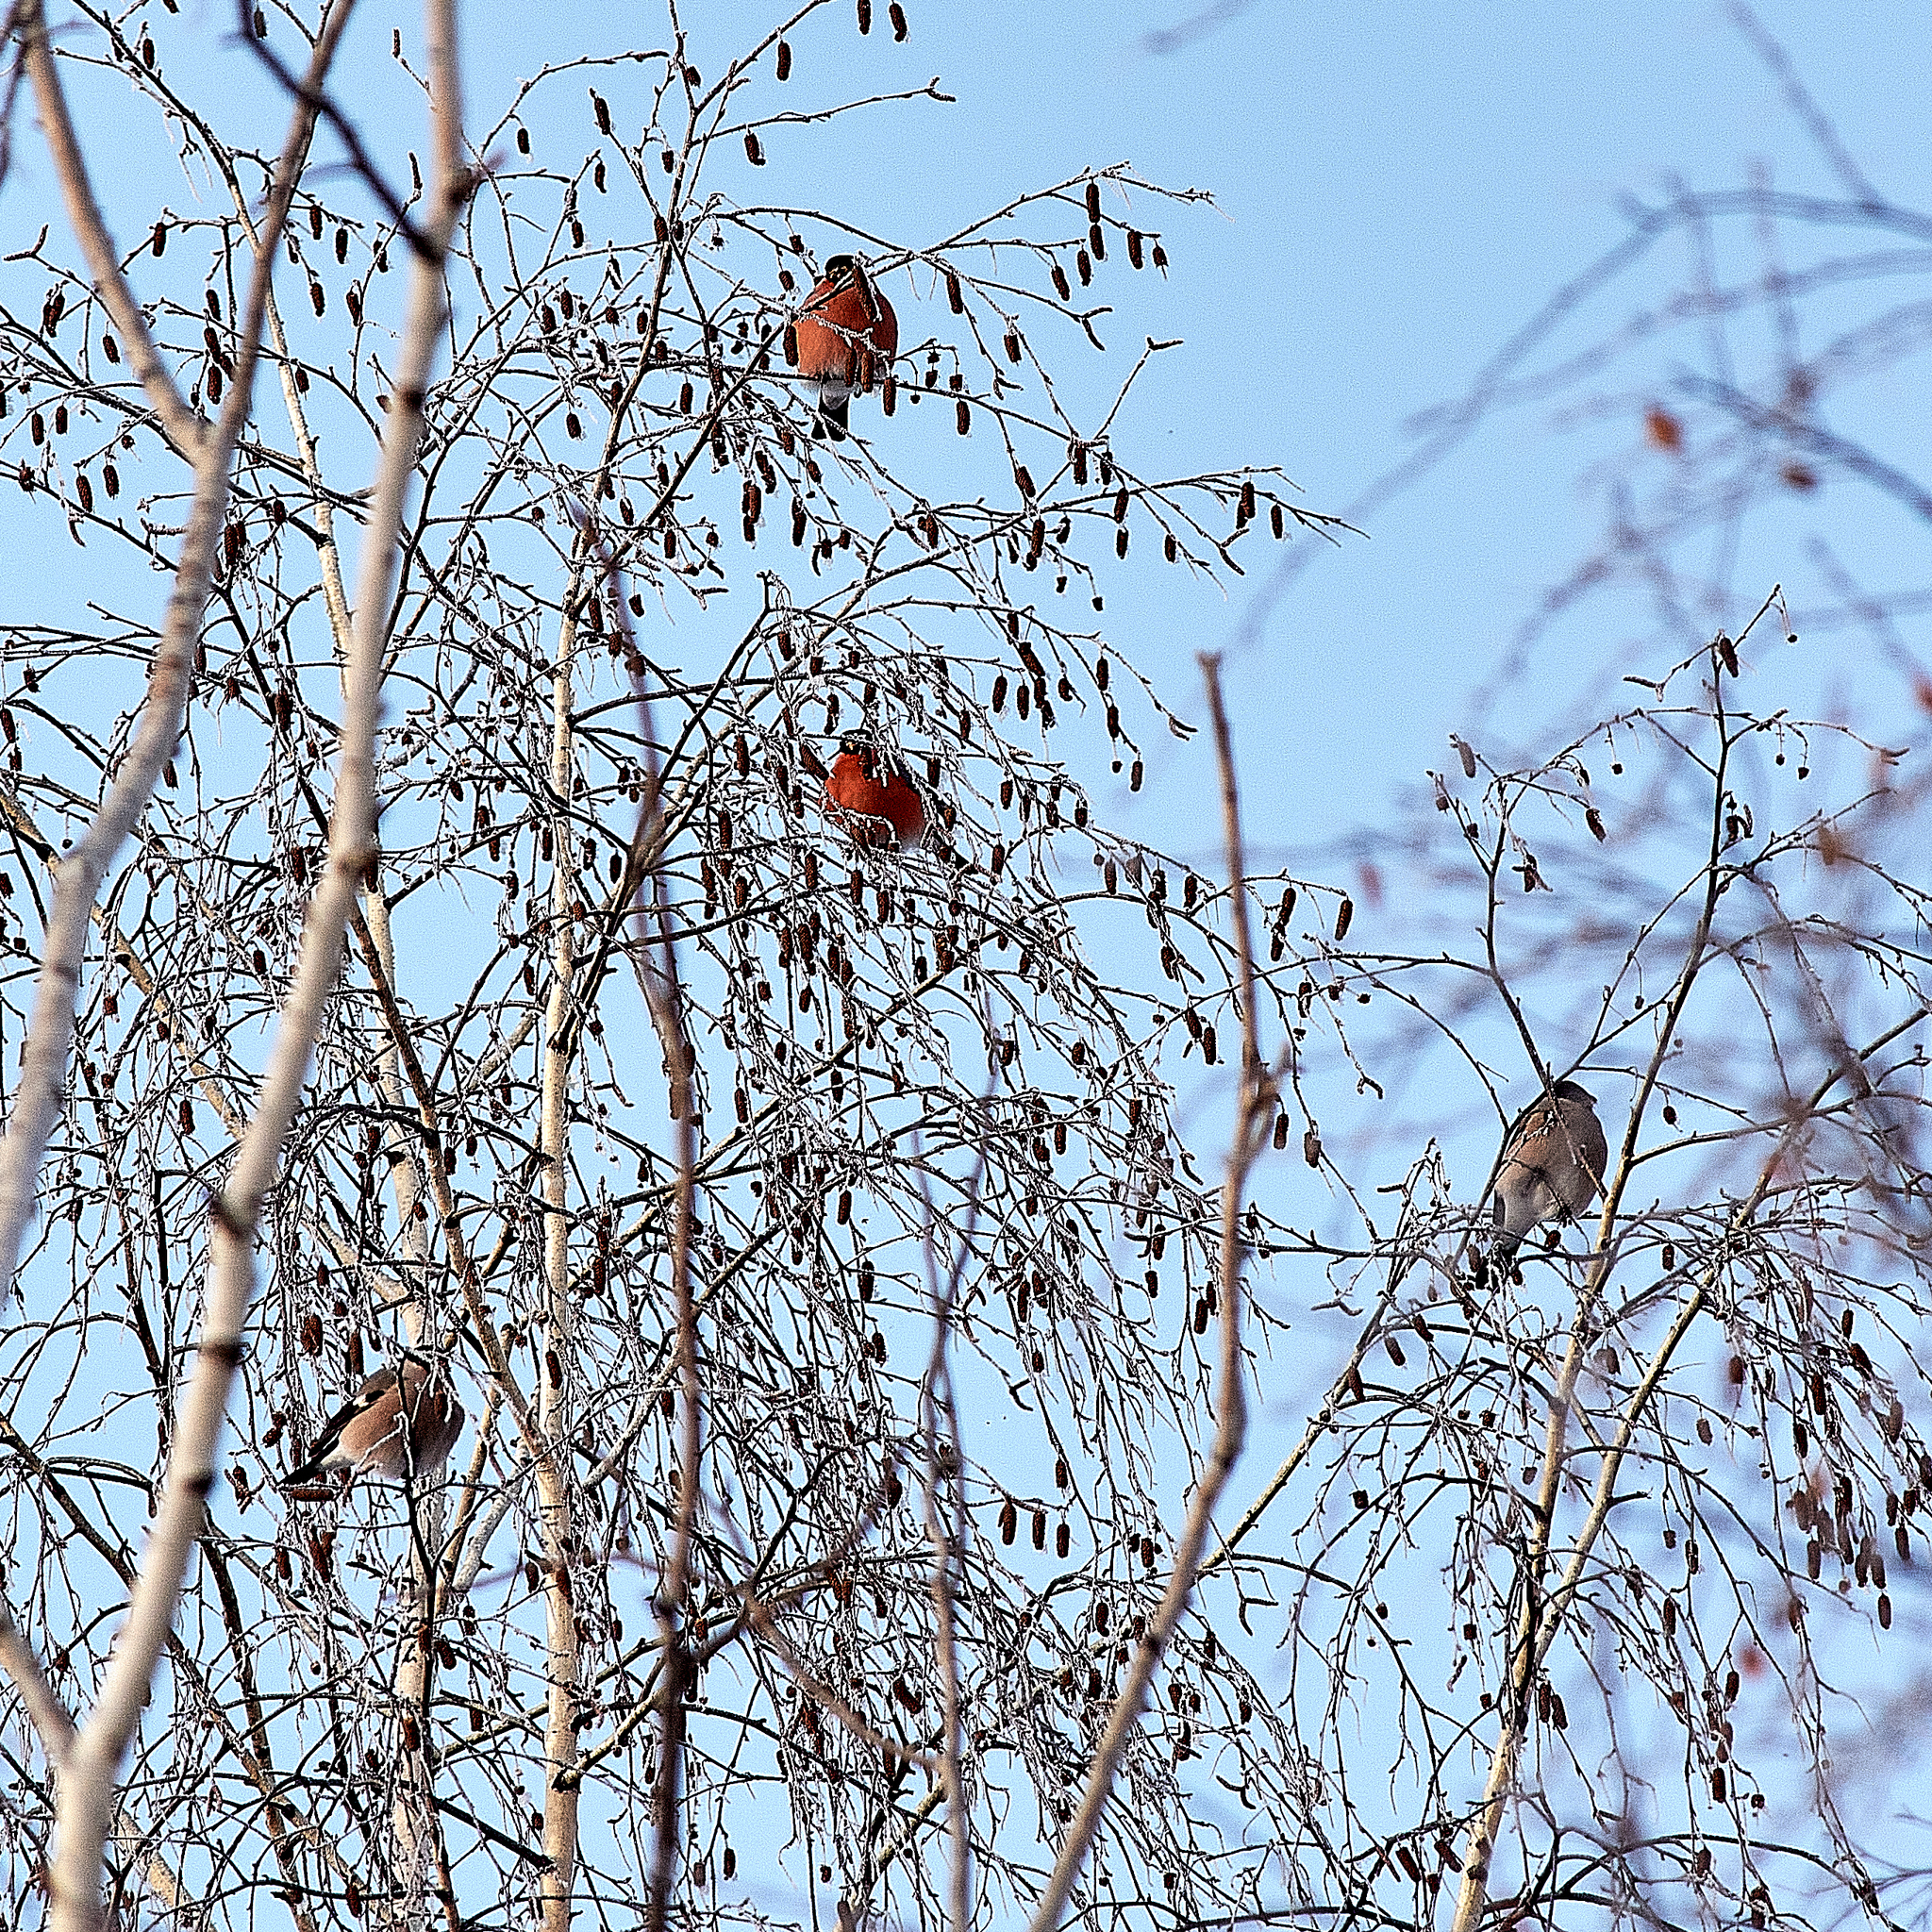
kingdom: Animalia
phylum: Chordata
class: Aves
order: Passeriformes
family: Fringillidae
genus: Pyrrhula
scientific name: Pyrrhula pyrrhula
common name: Eurasian bullfinch
